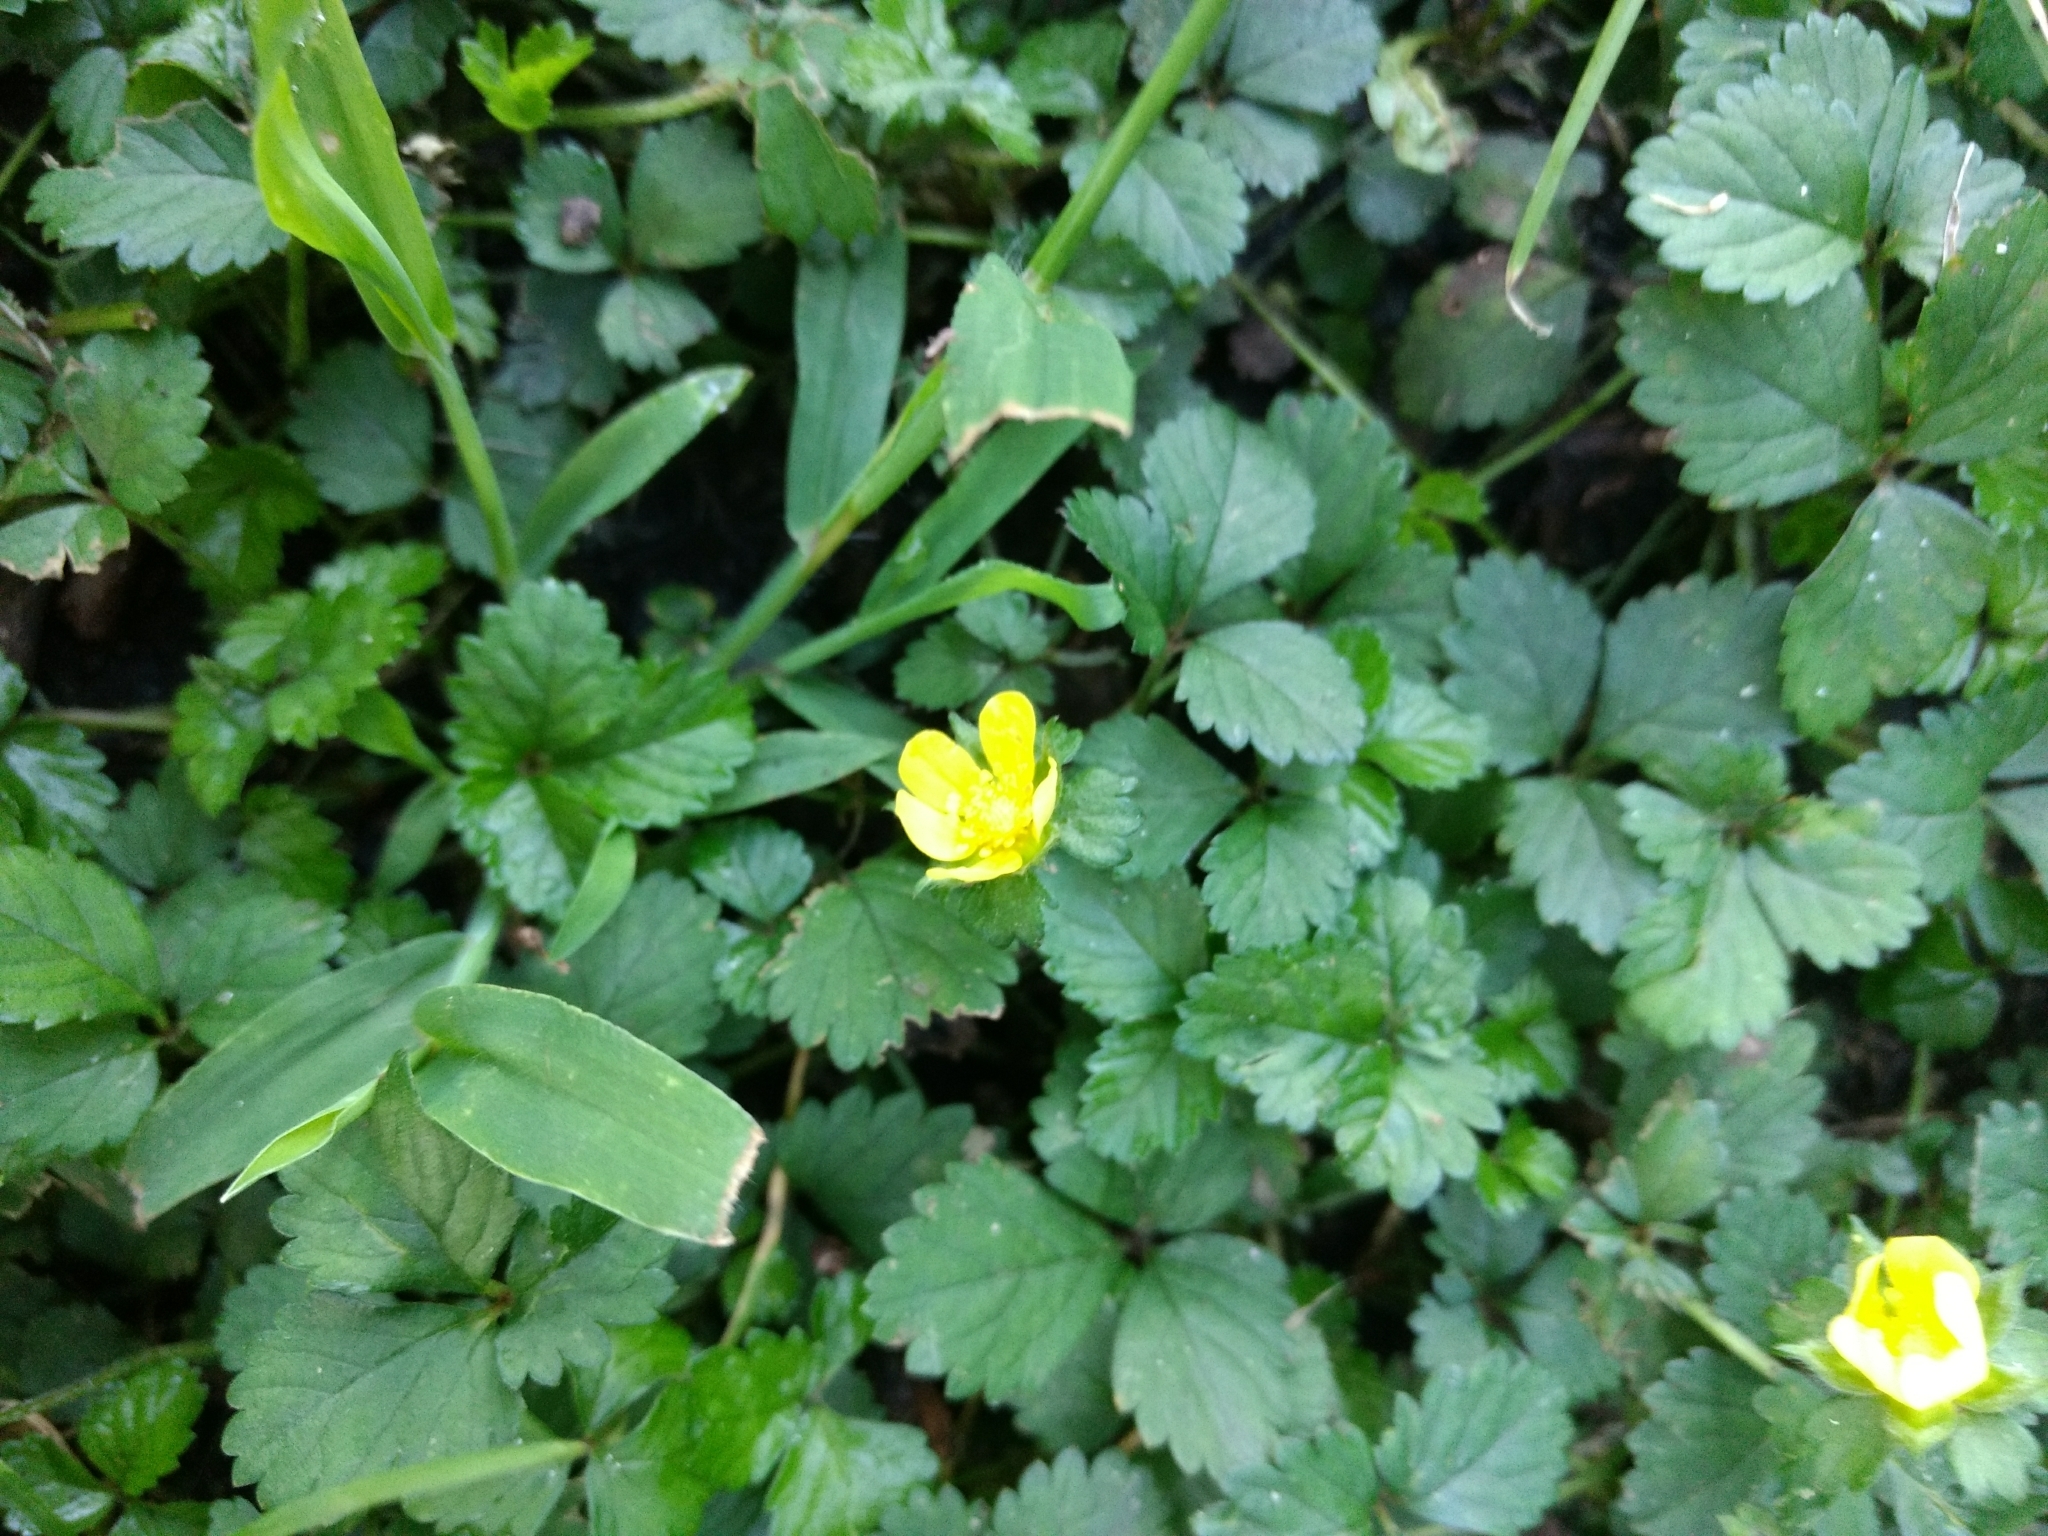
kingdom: Plantae
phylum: Tracheophyta
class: Magnoliopsida
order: Rosales
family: Rosaceae
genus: Potentilla
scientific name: Potentilla indica
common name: Yellow-flowered strawberry
